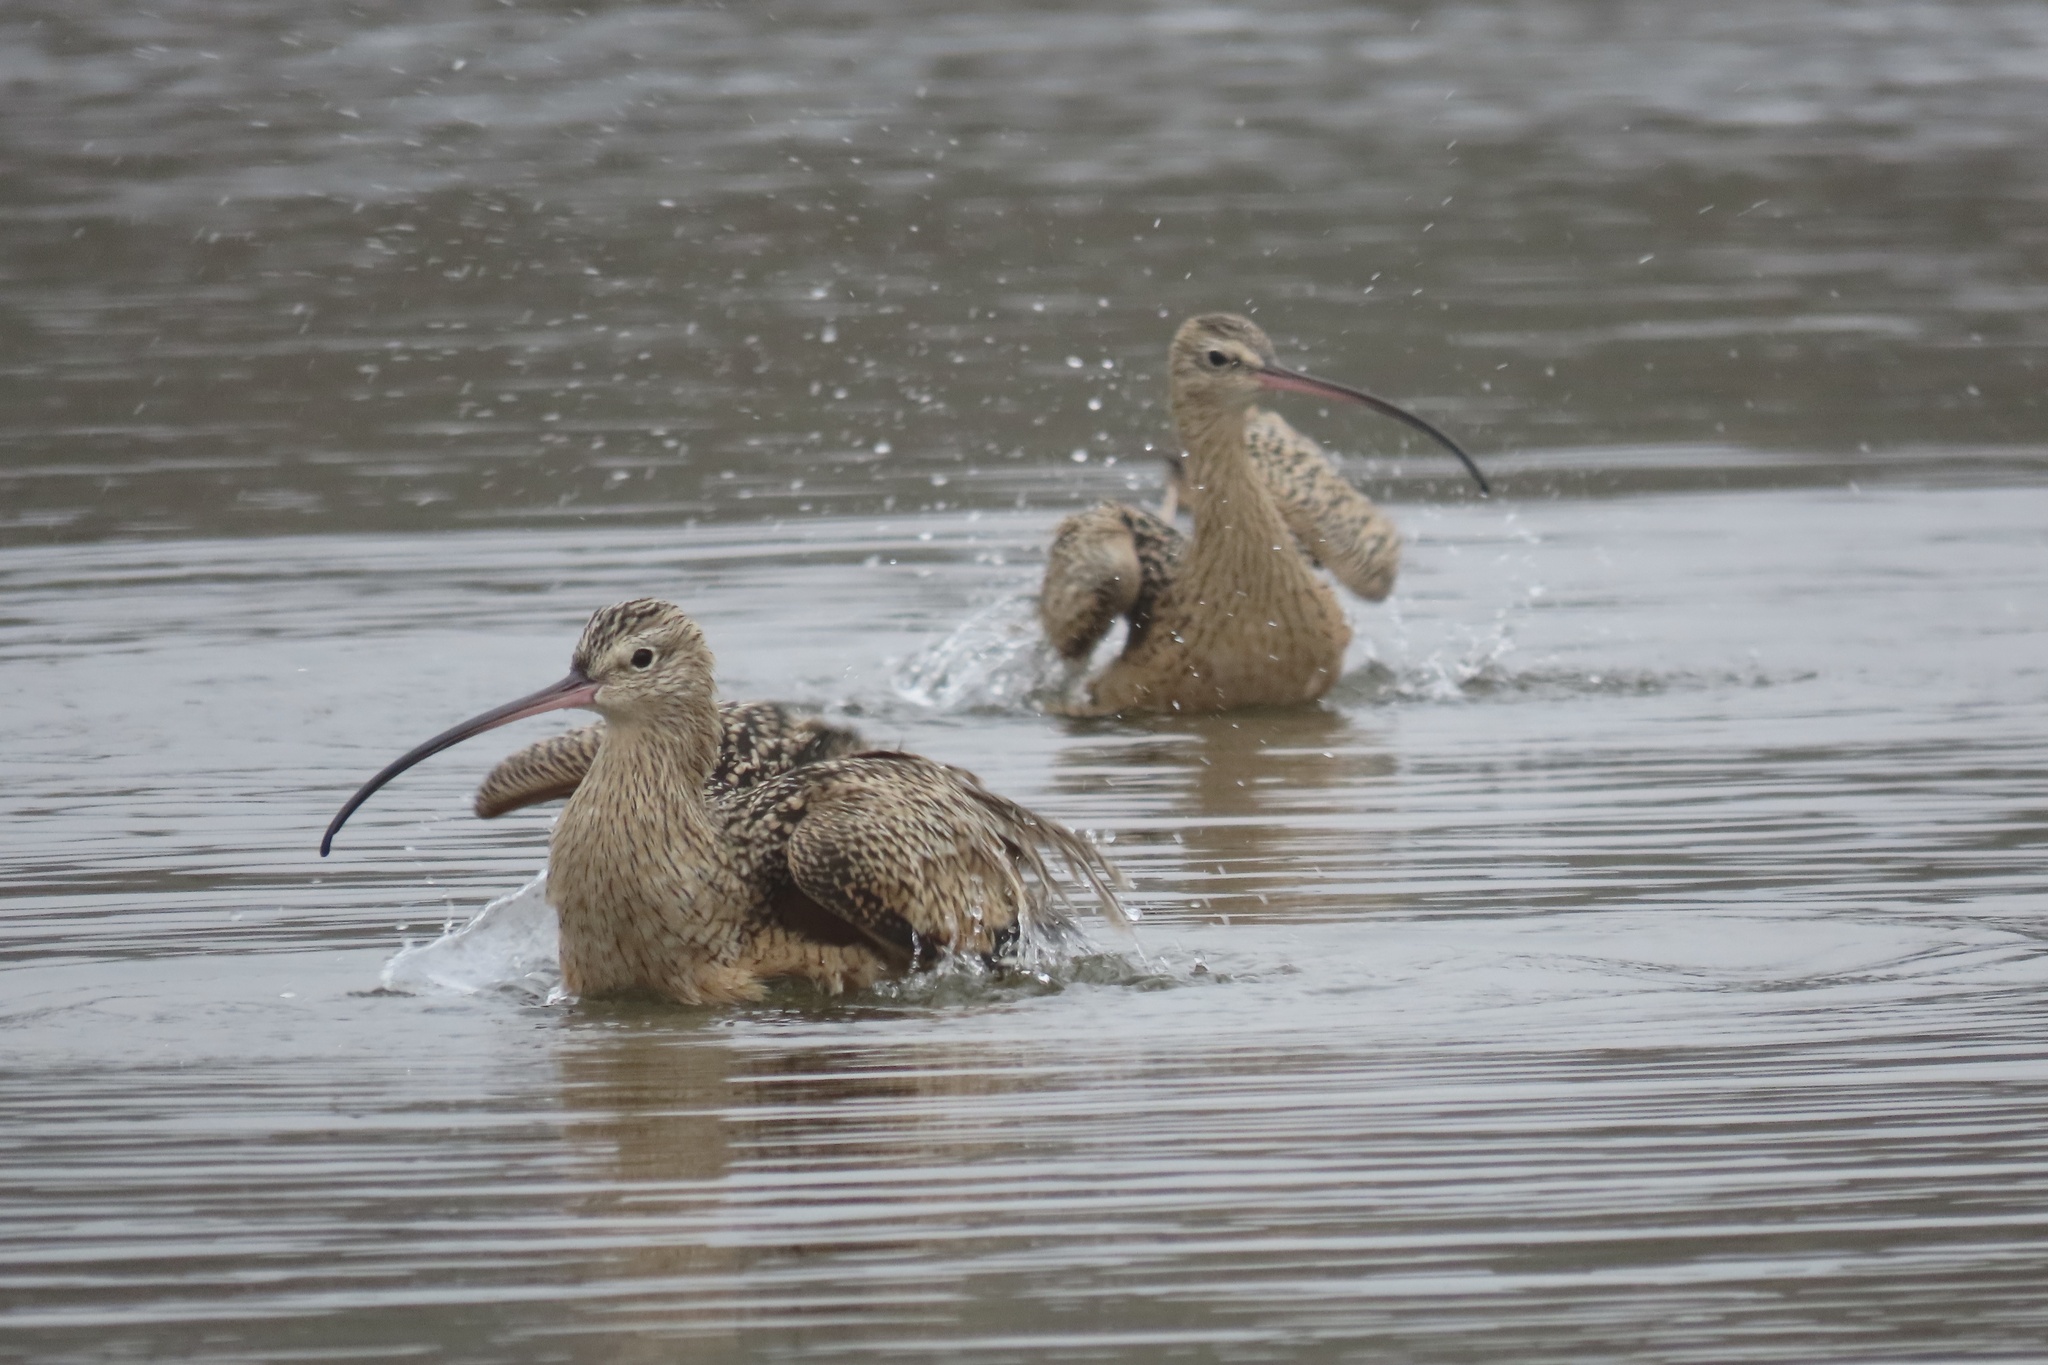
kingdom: Animalia
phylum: Chordata
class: Aves
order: Charadriiformes
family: Scolopacidae
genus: Numenius
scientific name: Numenius americanus
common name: Long-billed curlew
